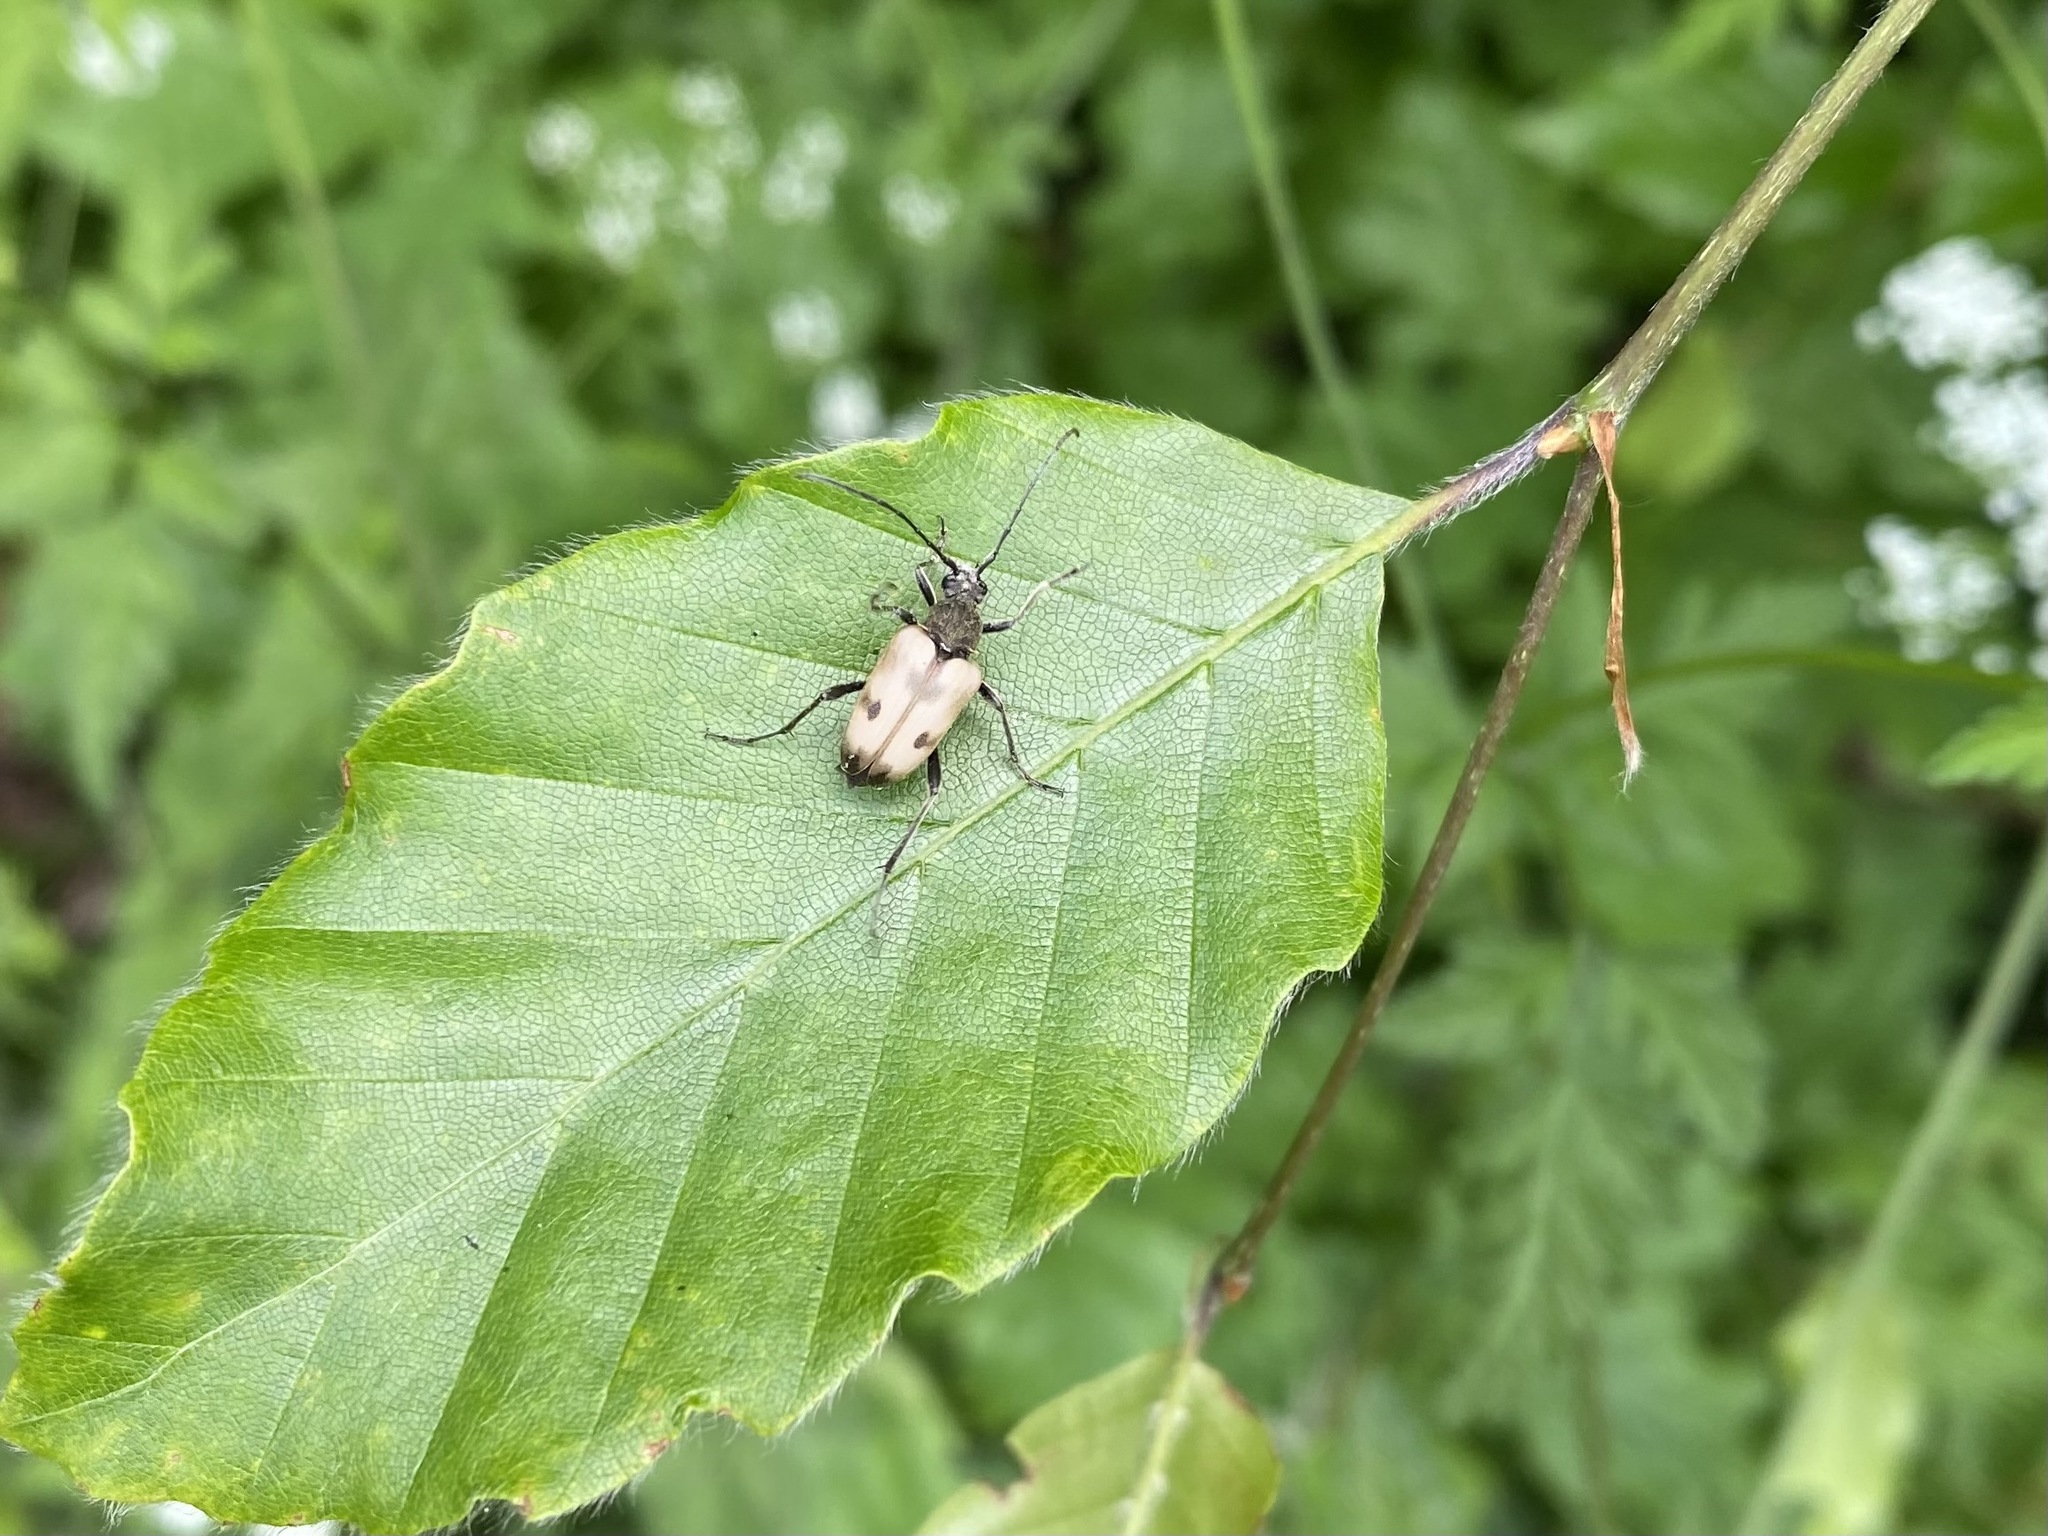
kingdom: Animalia
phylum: Arthropoda
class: Insecta
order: Coleoptera
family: Cerambycidae
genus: Pachytodes
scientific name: Pachytodes cerambyciformis
